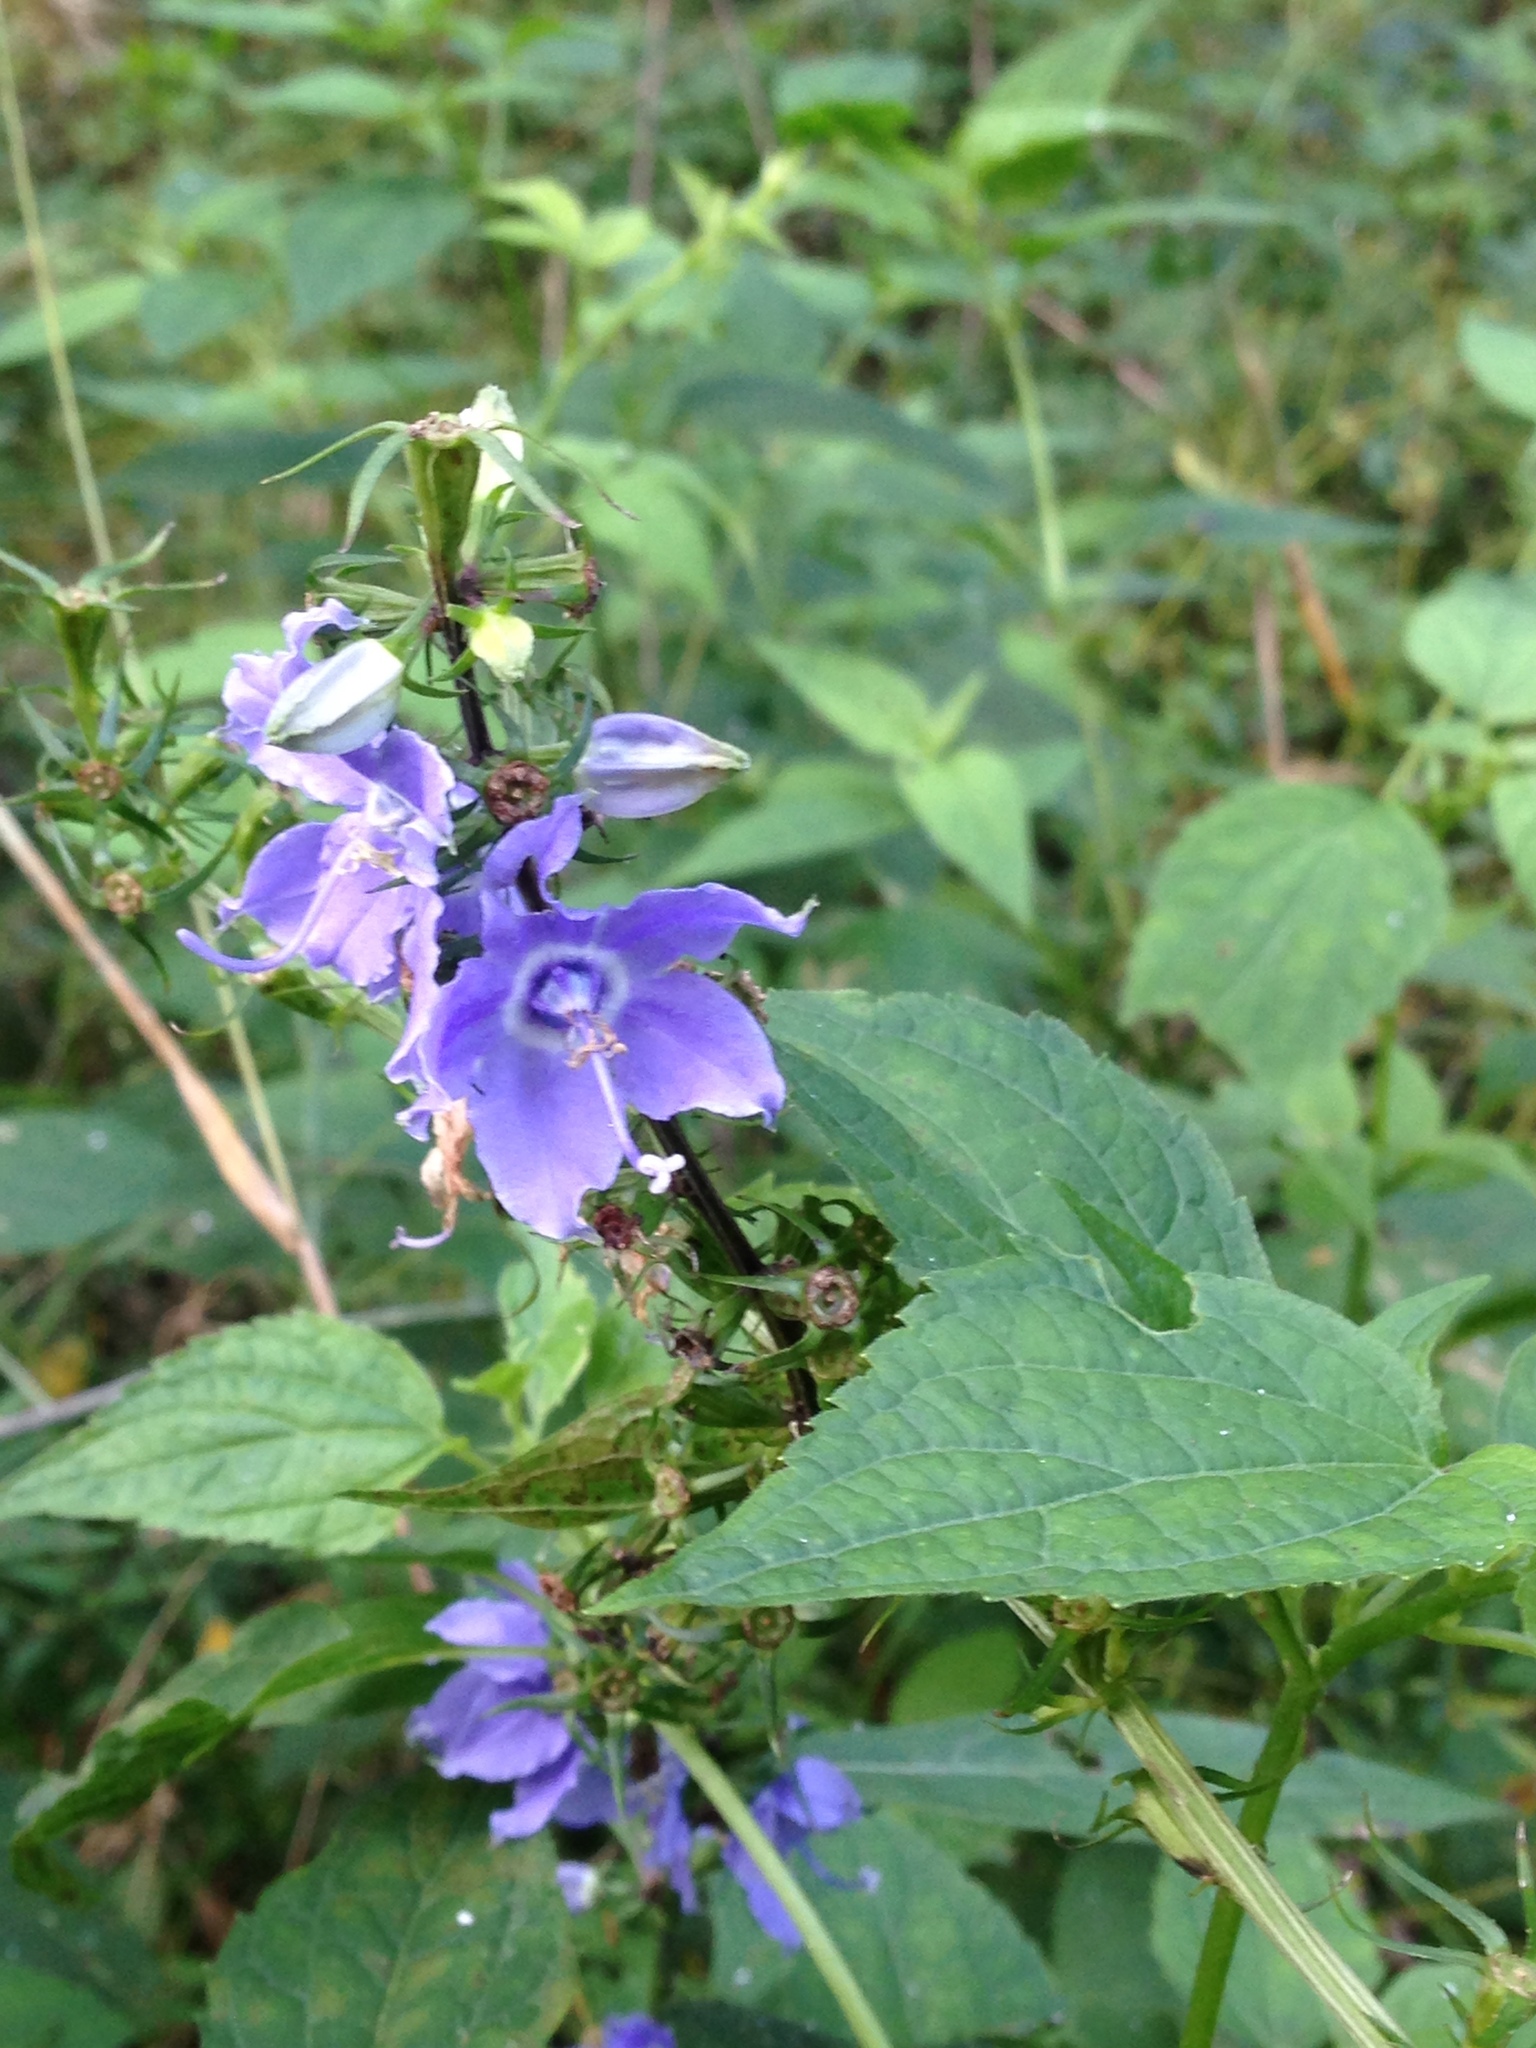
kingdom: Plantae
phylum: Tracheophyta
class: Magnoliopsida
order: Asterales
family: Campanulaceae
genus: Campanulastrum
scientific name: Campanulastrum americanum
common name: American bellflower
